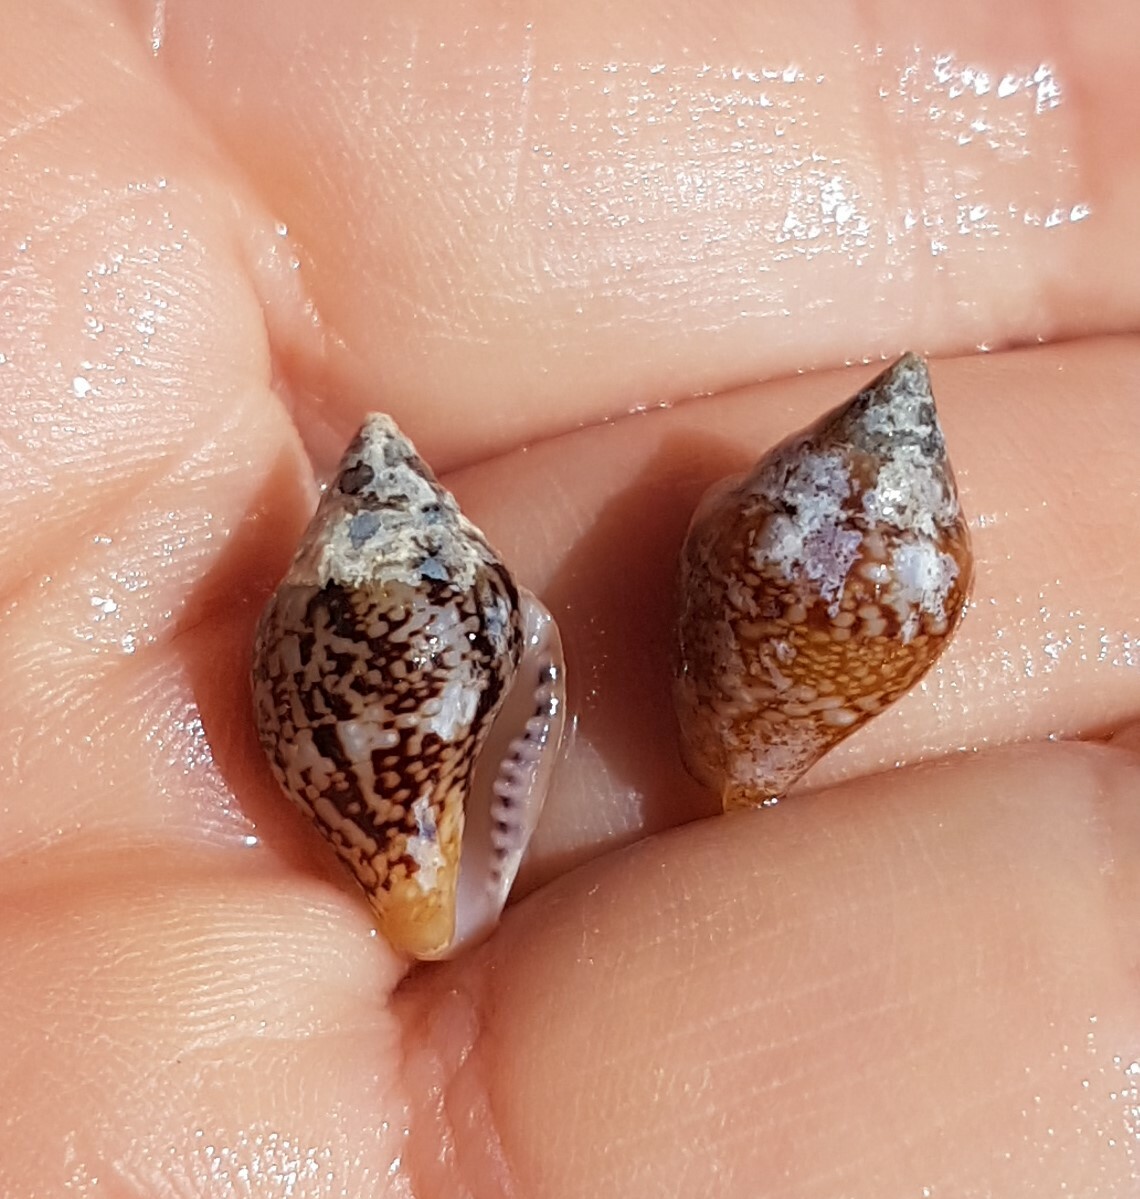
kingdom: Animalia
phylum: Mollusca
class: Gastropoda
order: Neogastropoda
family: Columbellidae
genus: Columbella
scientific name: Columbella rustica
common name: Rustic dove shell
